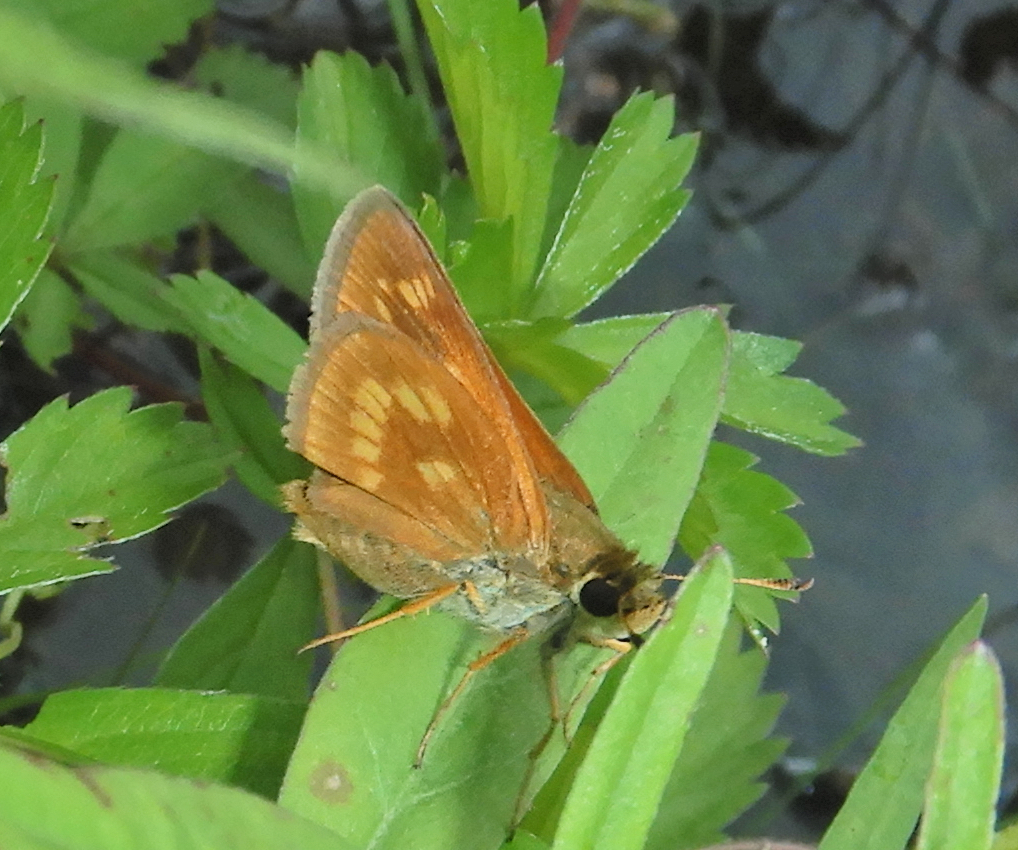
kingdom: Animalia
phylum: Arthropoda
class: Insecta
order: Lepidoptera
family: Hesperiidae
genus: Polites
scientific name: Polites mystic
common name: Long dash
